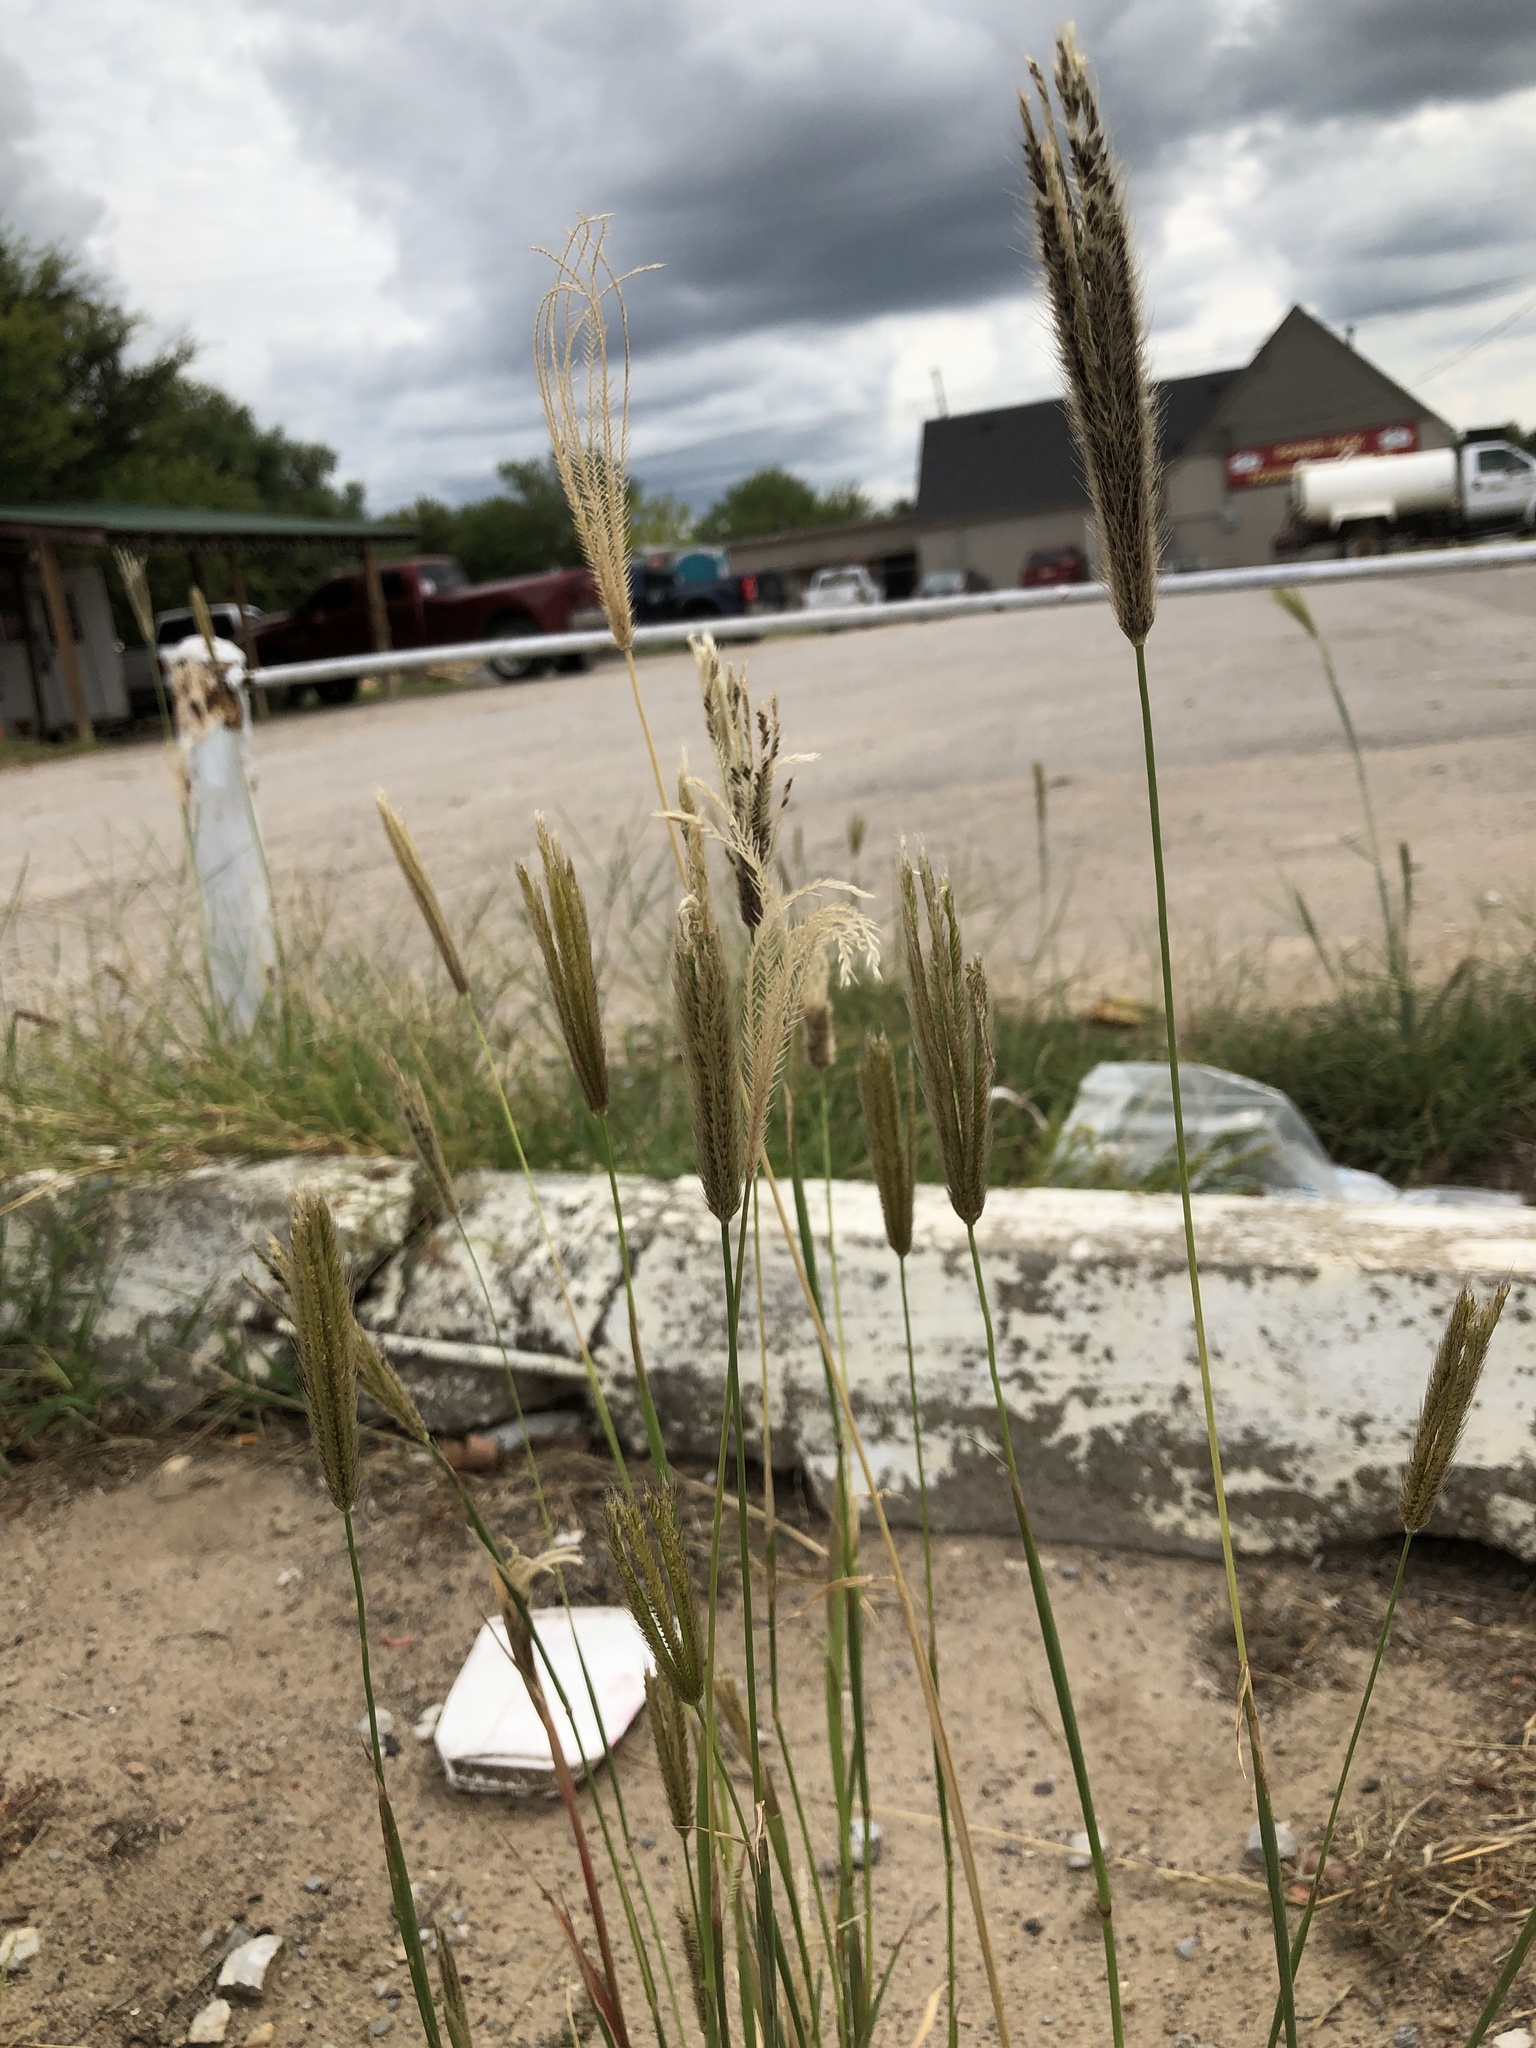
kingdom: Plantae
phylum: Tracheophyta
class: Liliopsida
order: Poales
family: Poaceae
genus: Chloris
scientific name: Chloris virgata
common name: Feathery rhodes-grass
